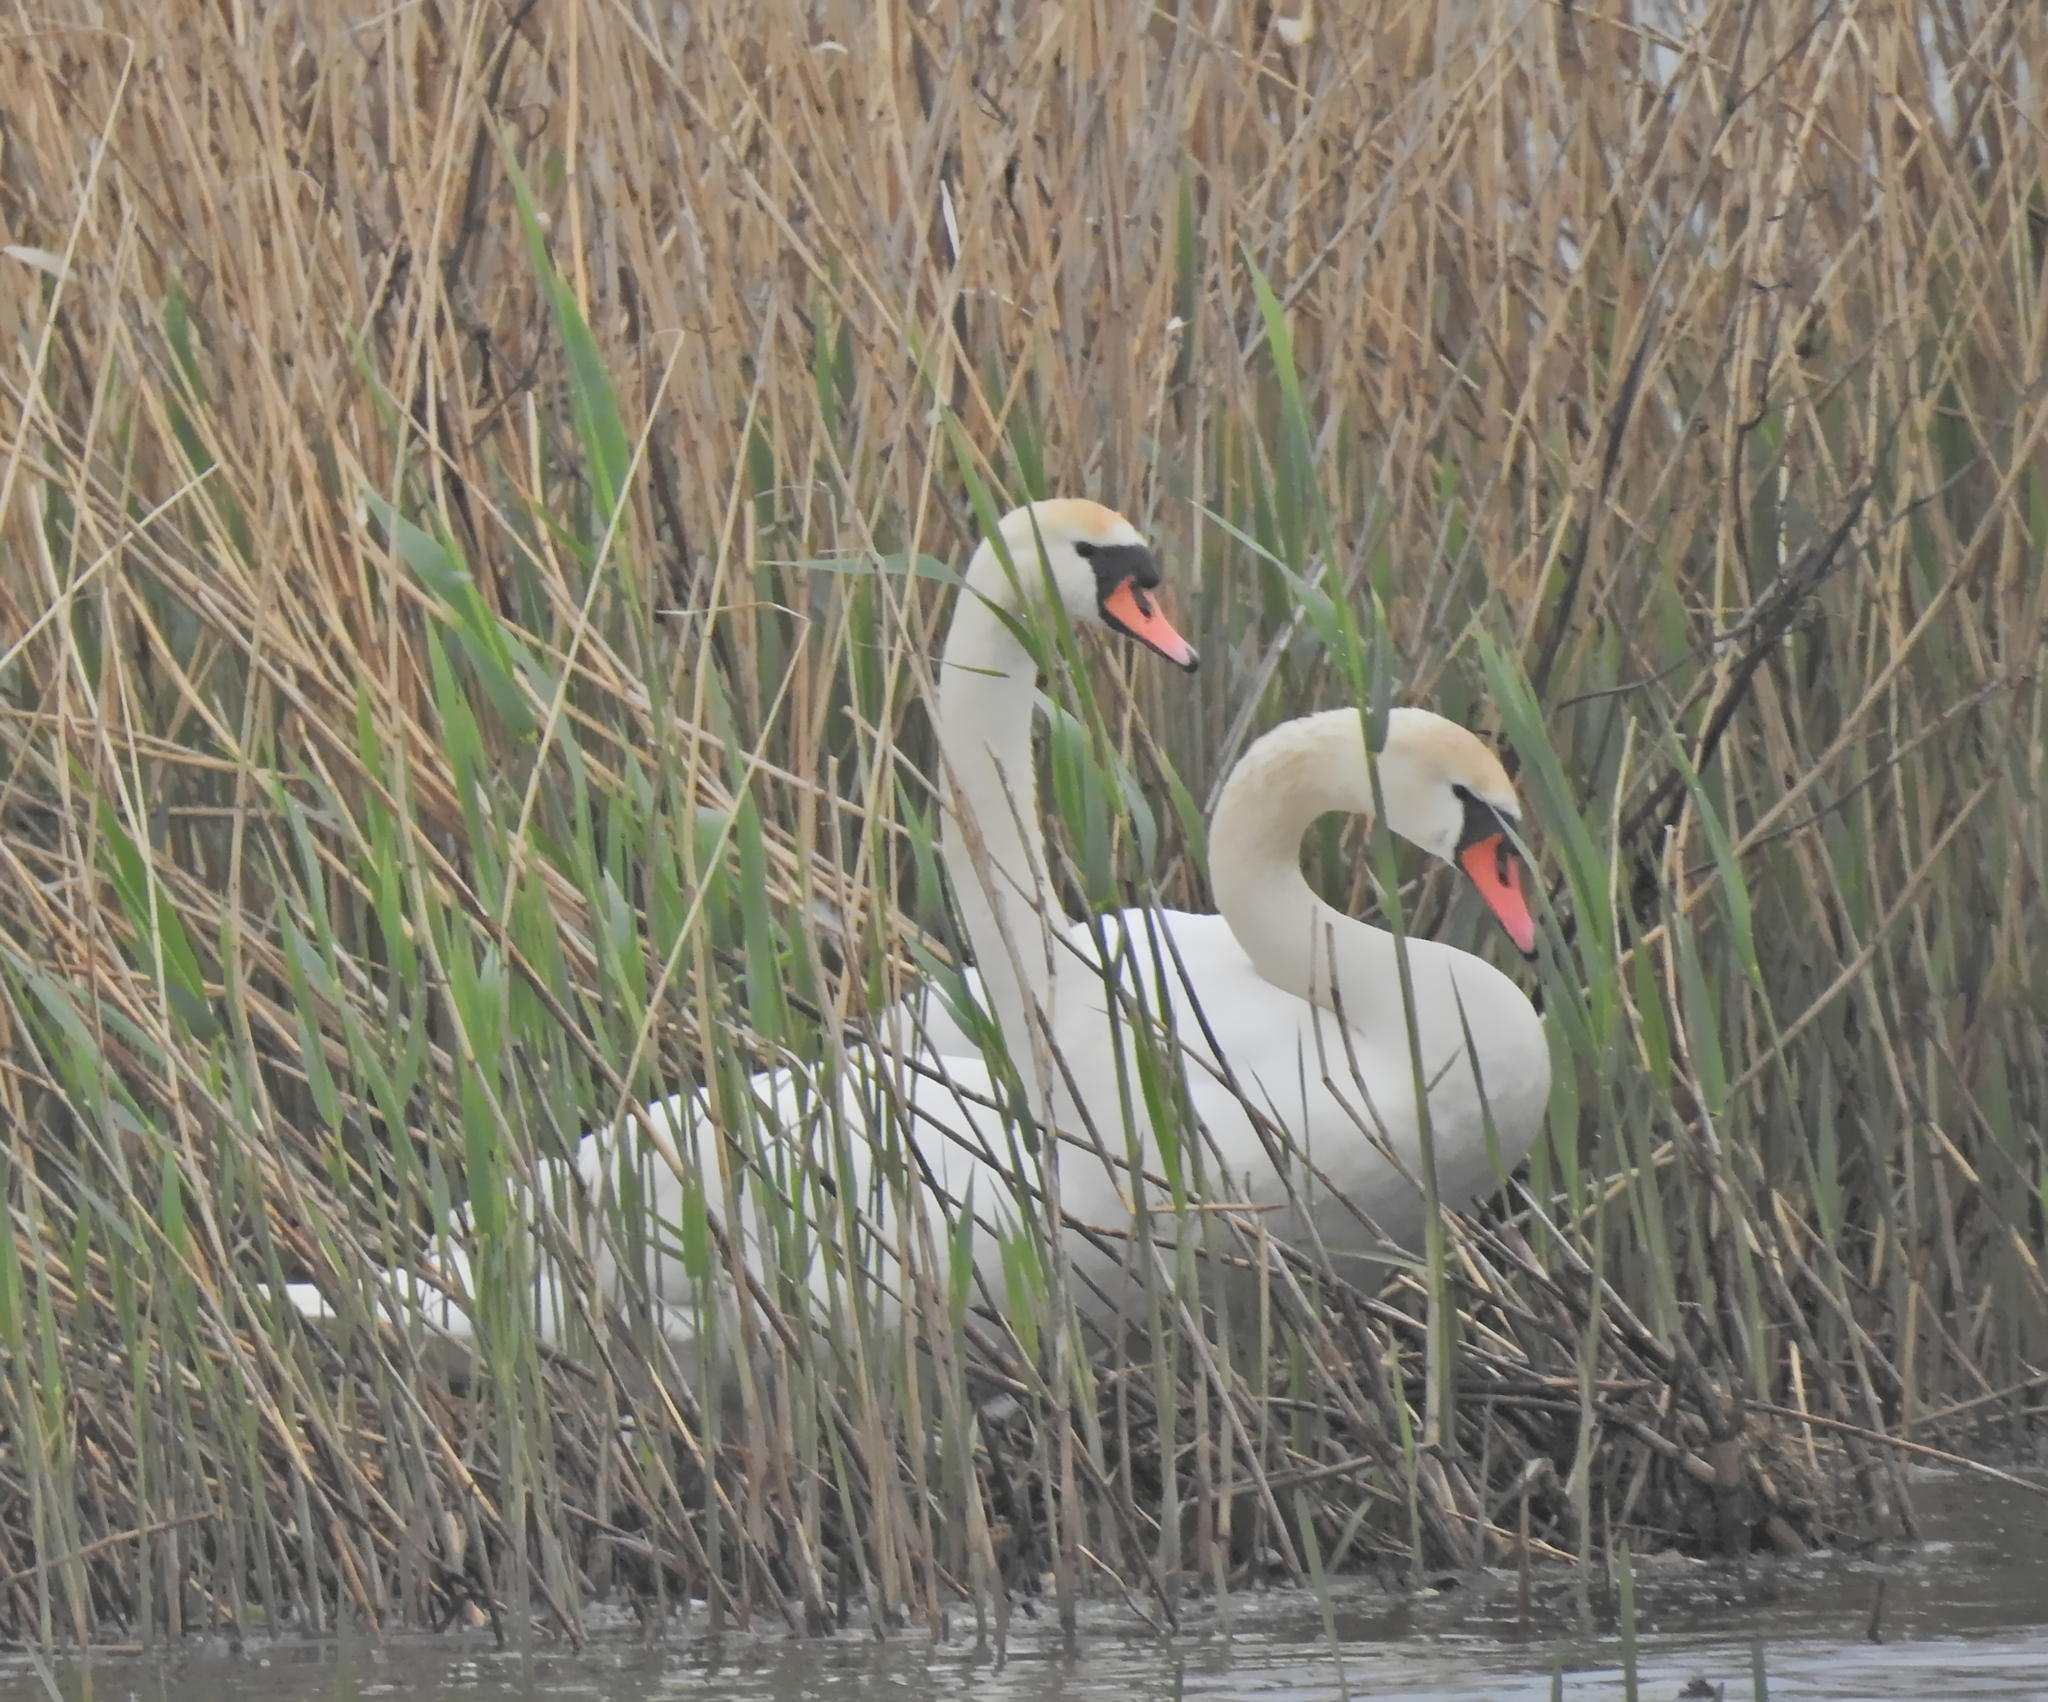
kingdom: Animalia
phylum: Chordata
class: Aves
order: Anseriformes
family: Anatidae
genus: Cygnus
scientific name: Cygnus olor
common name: Mute swan
